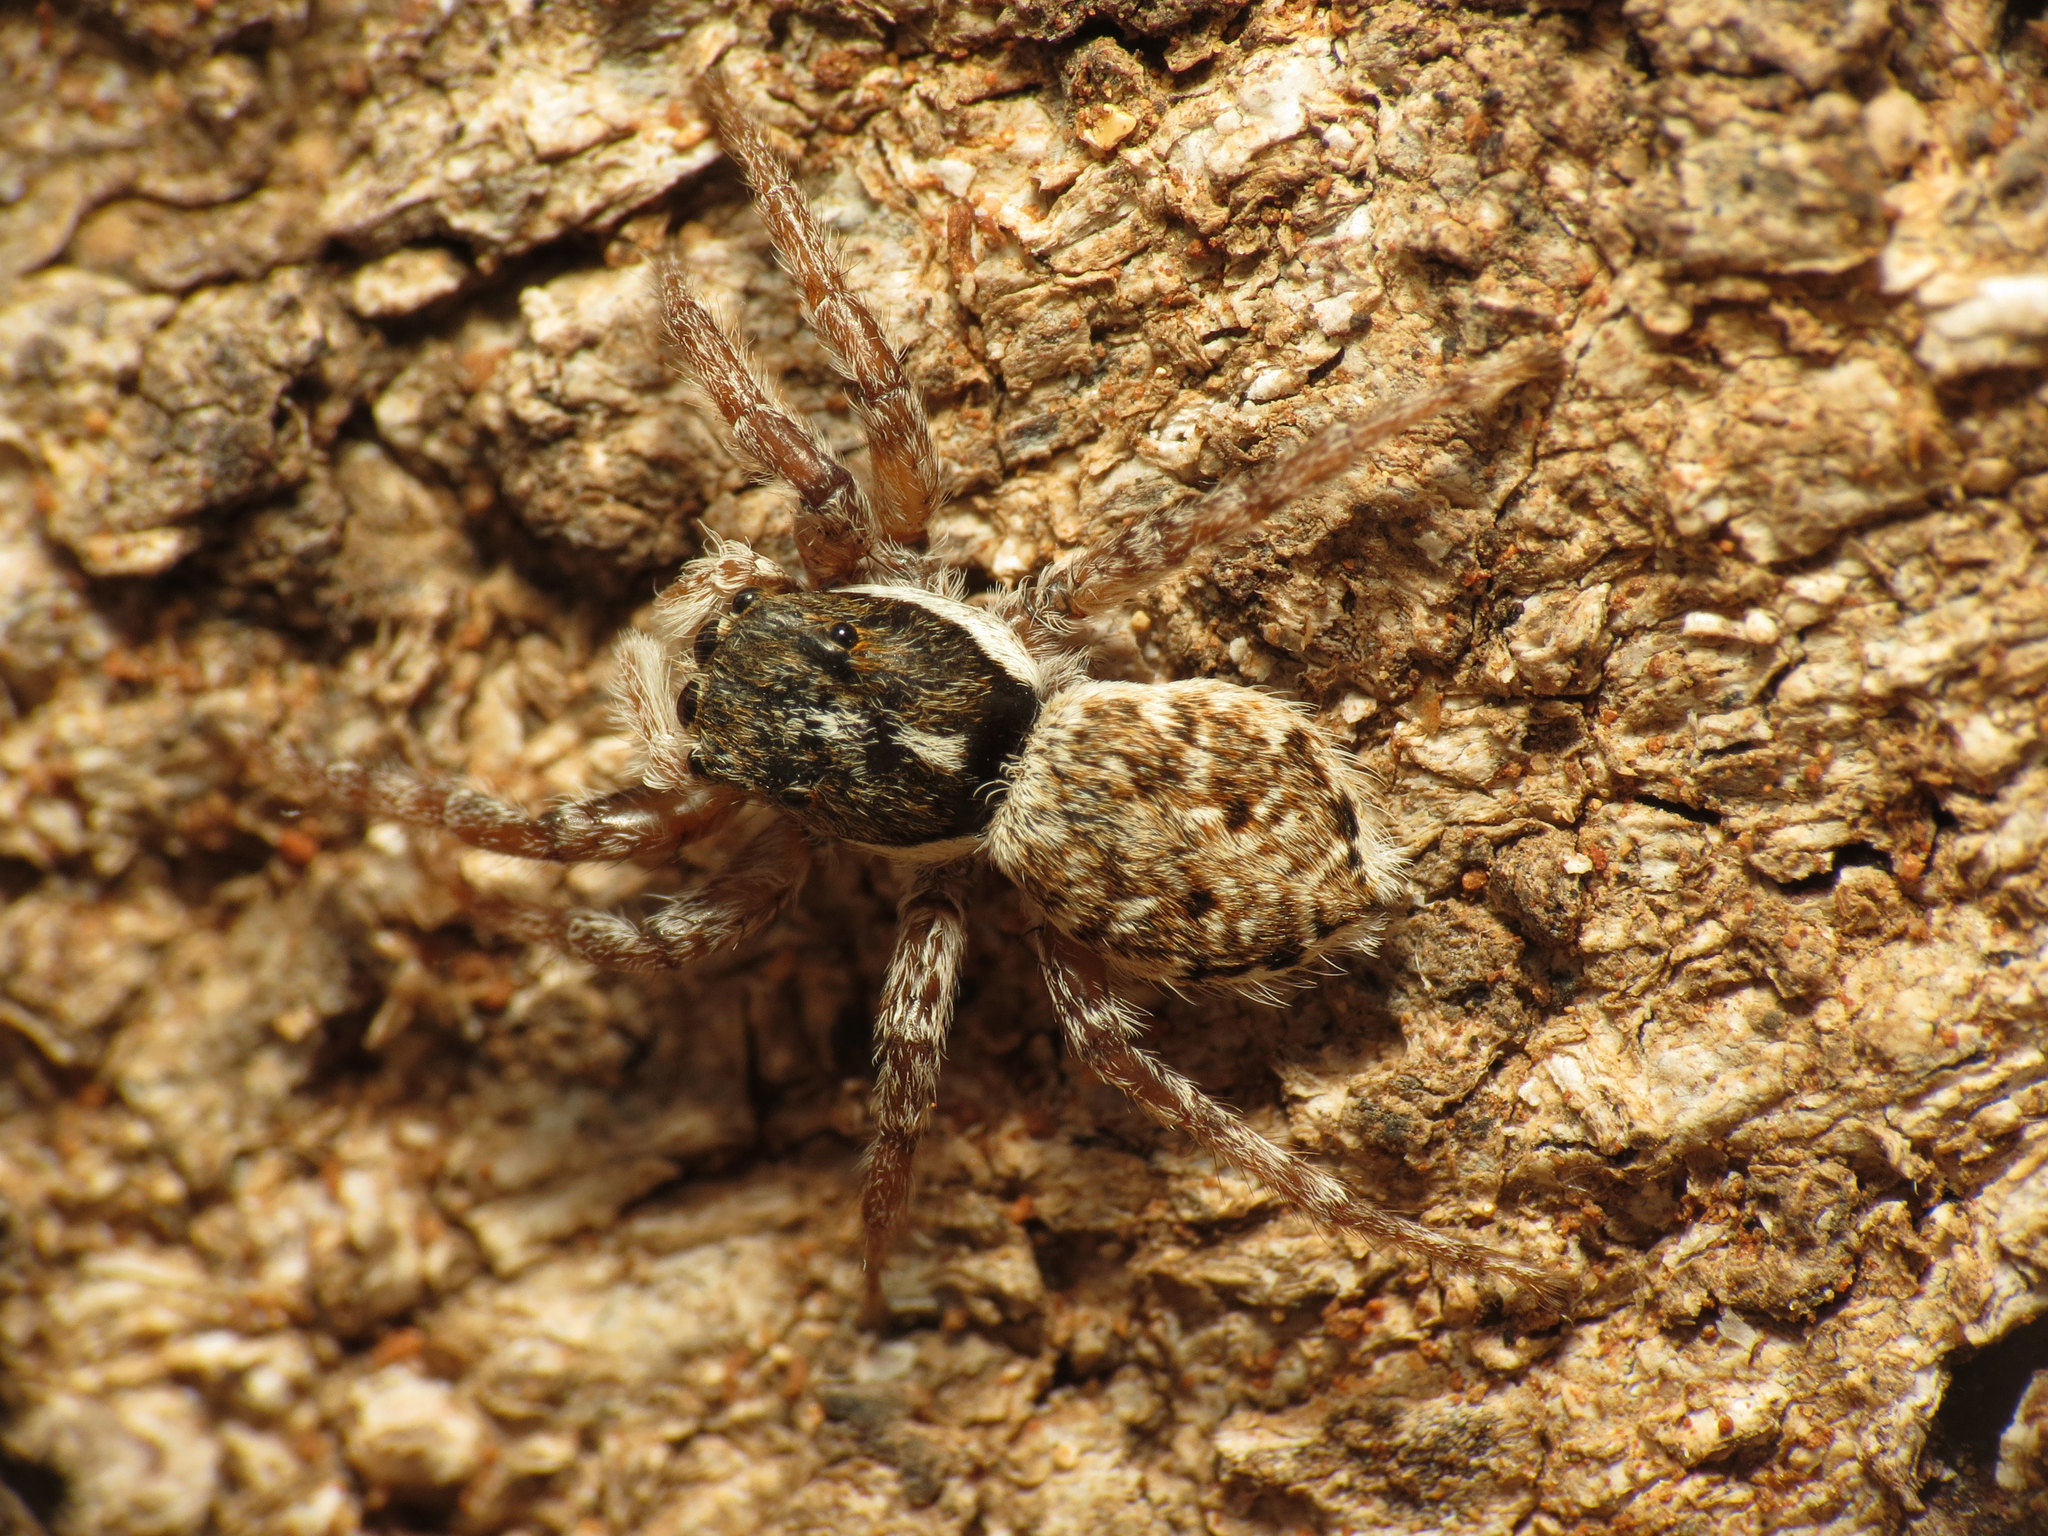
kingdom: Animalia
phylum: Arthropoda
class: Arachnida
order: Araneae
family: Salticidae
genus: Menemerus
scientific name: Menemerus semilimbatus
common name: Jumping spider
